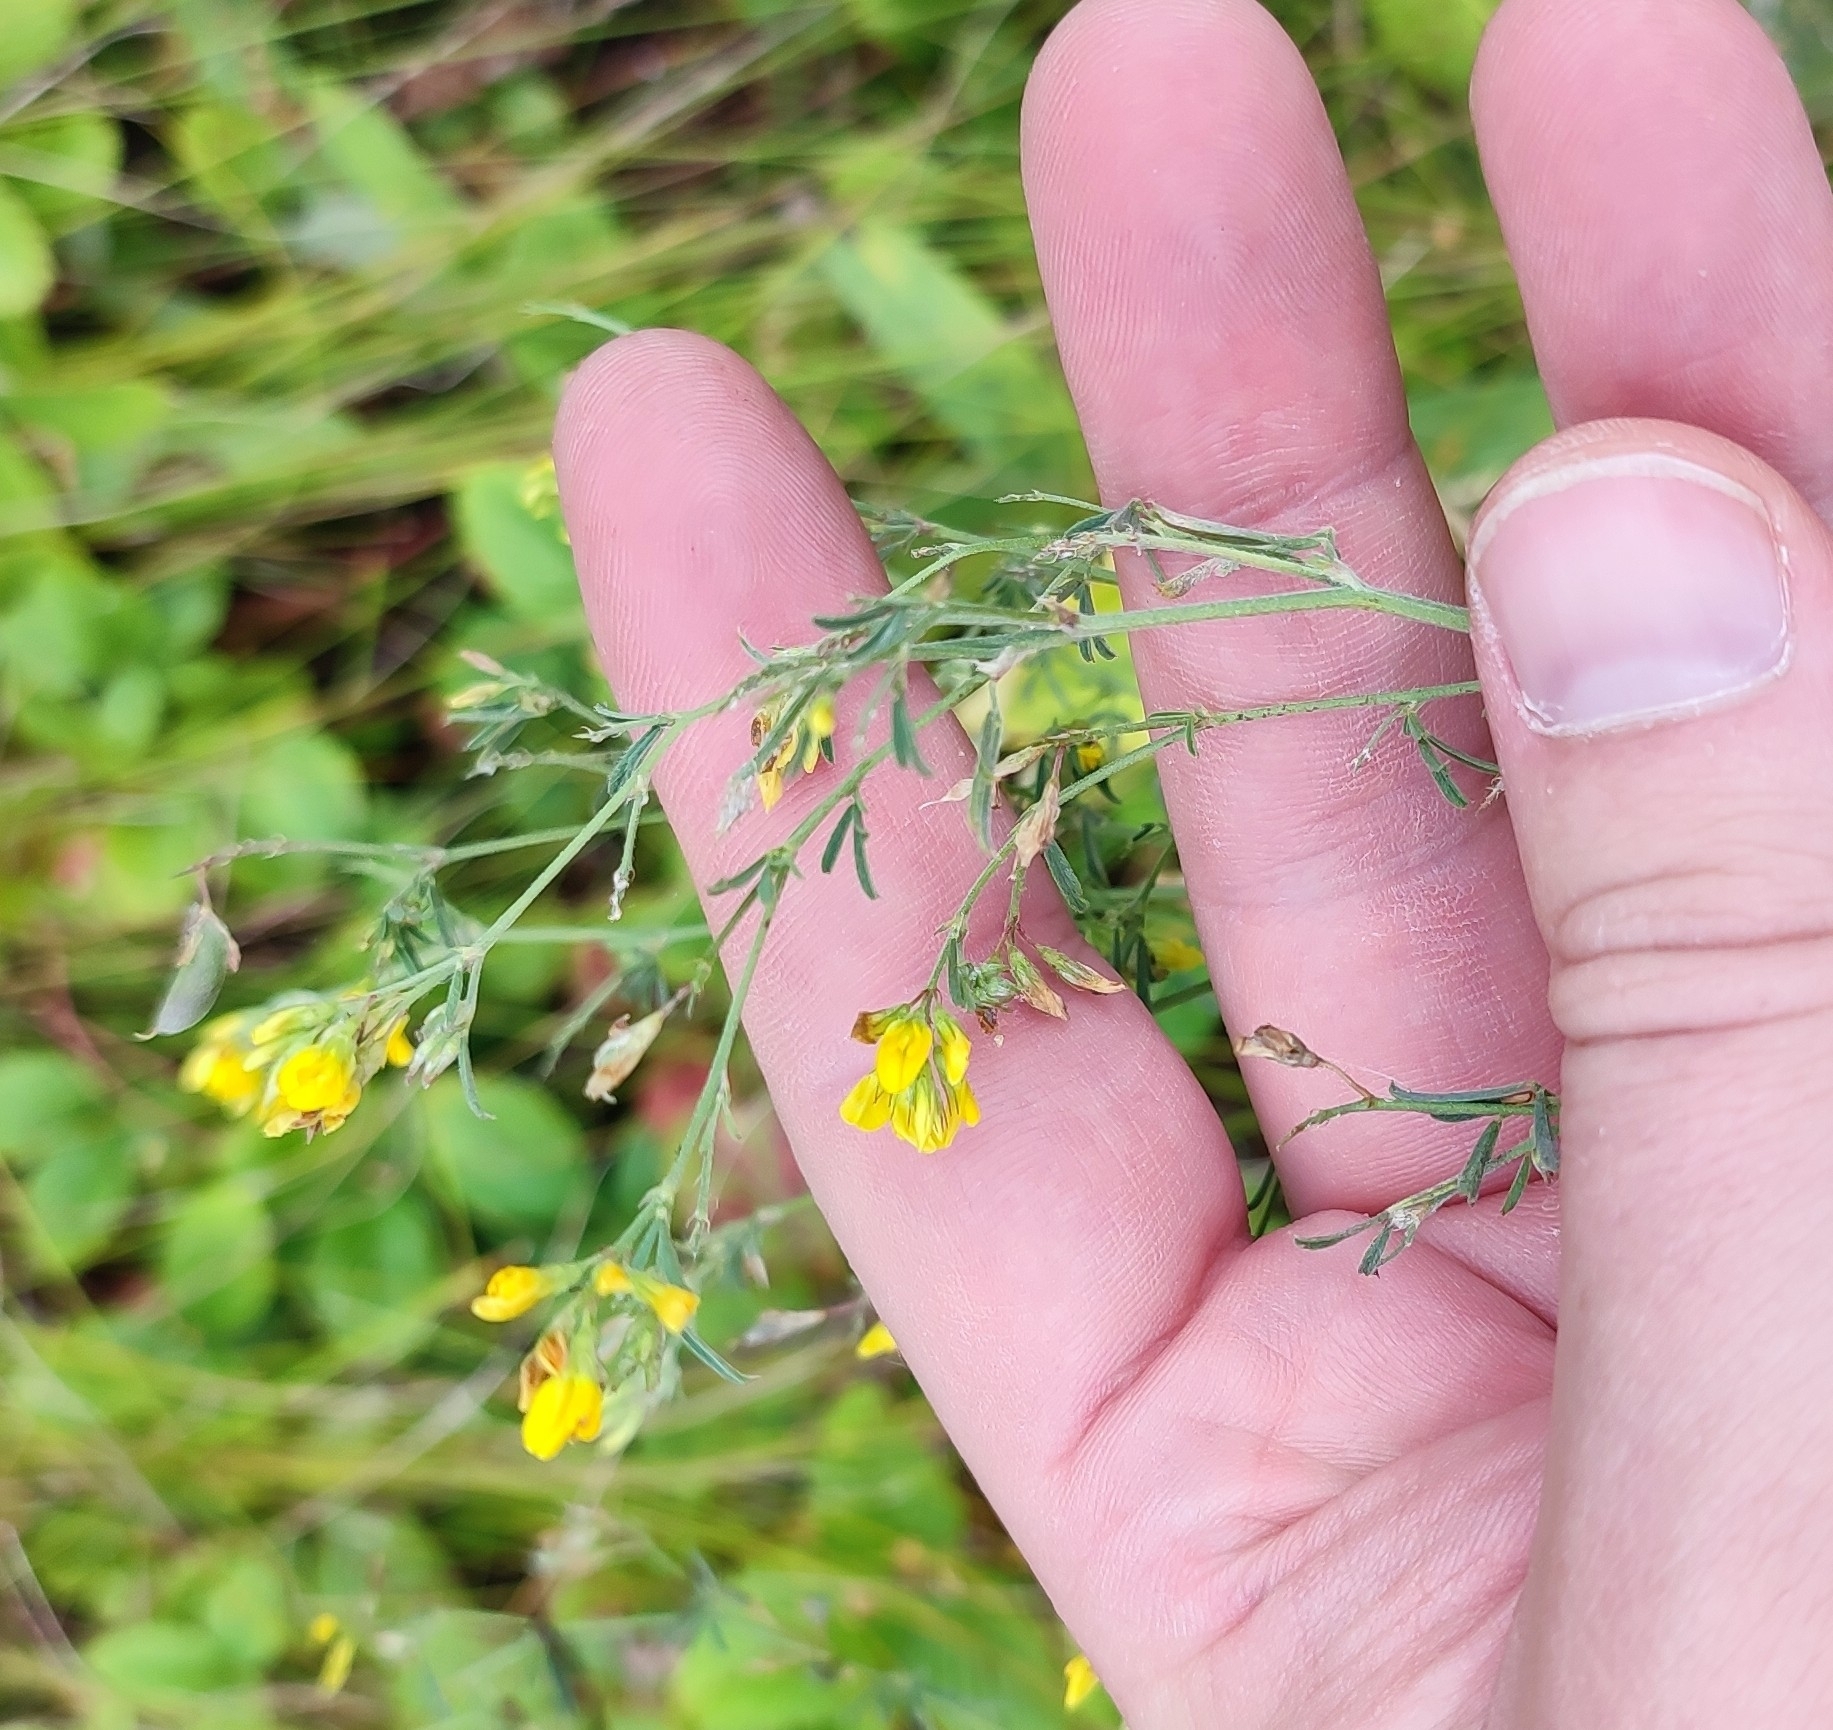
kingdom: Plantae
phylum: Tracheophyta
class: Magnoliopsida
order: Fabales
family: Fabaceae
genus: Medicago
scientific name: Medicago falcata
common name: Sickle medick
